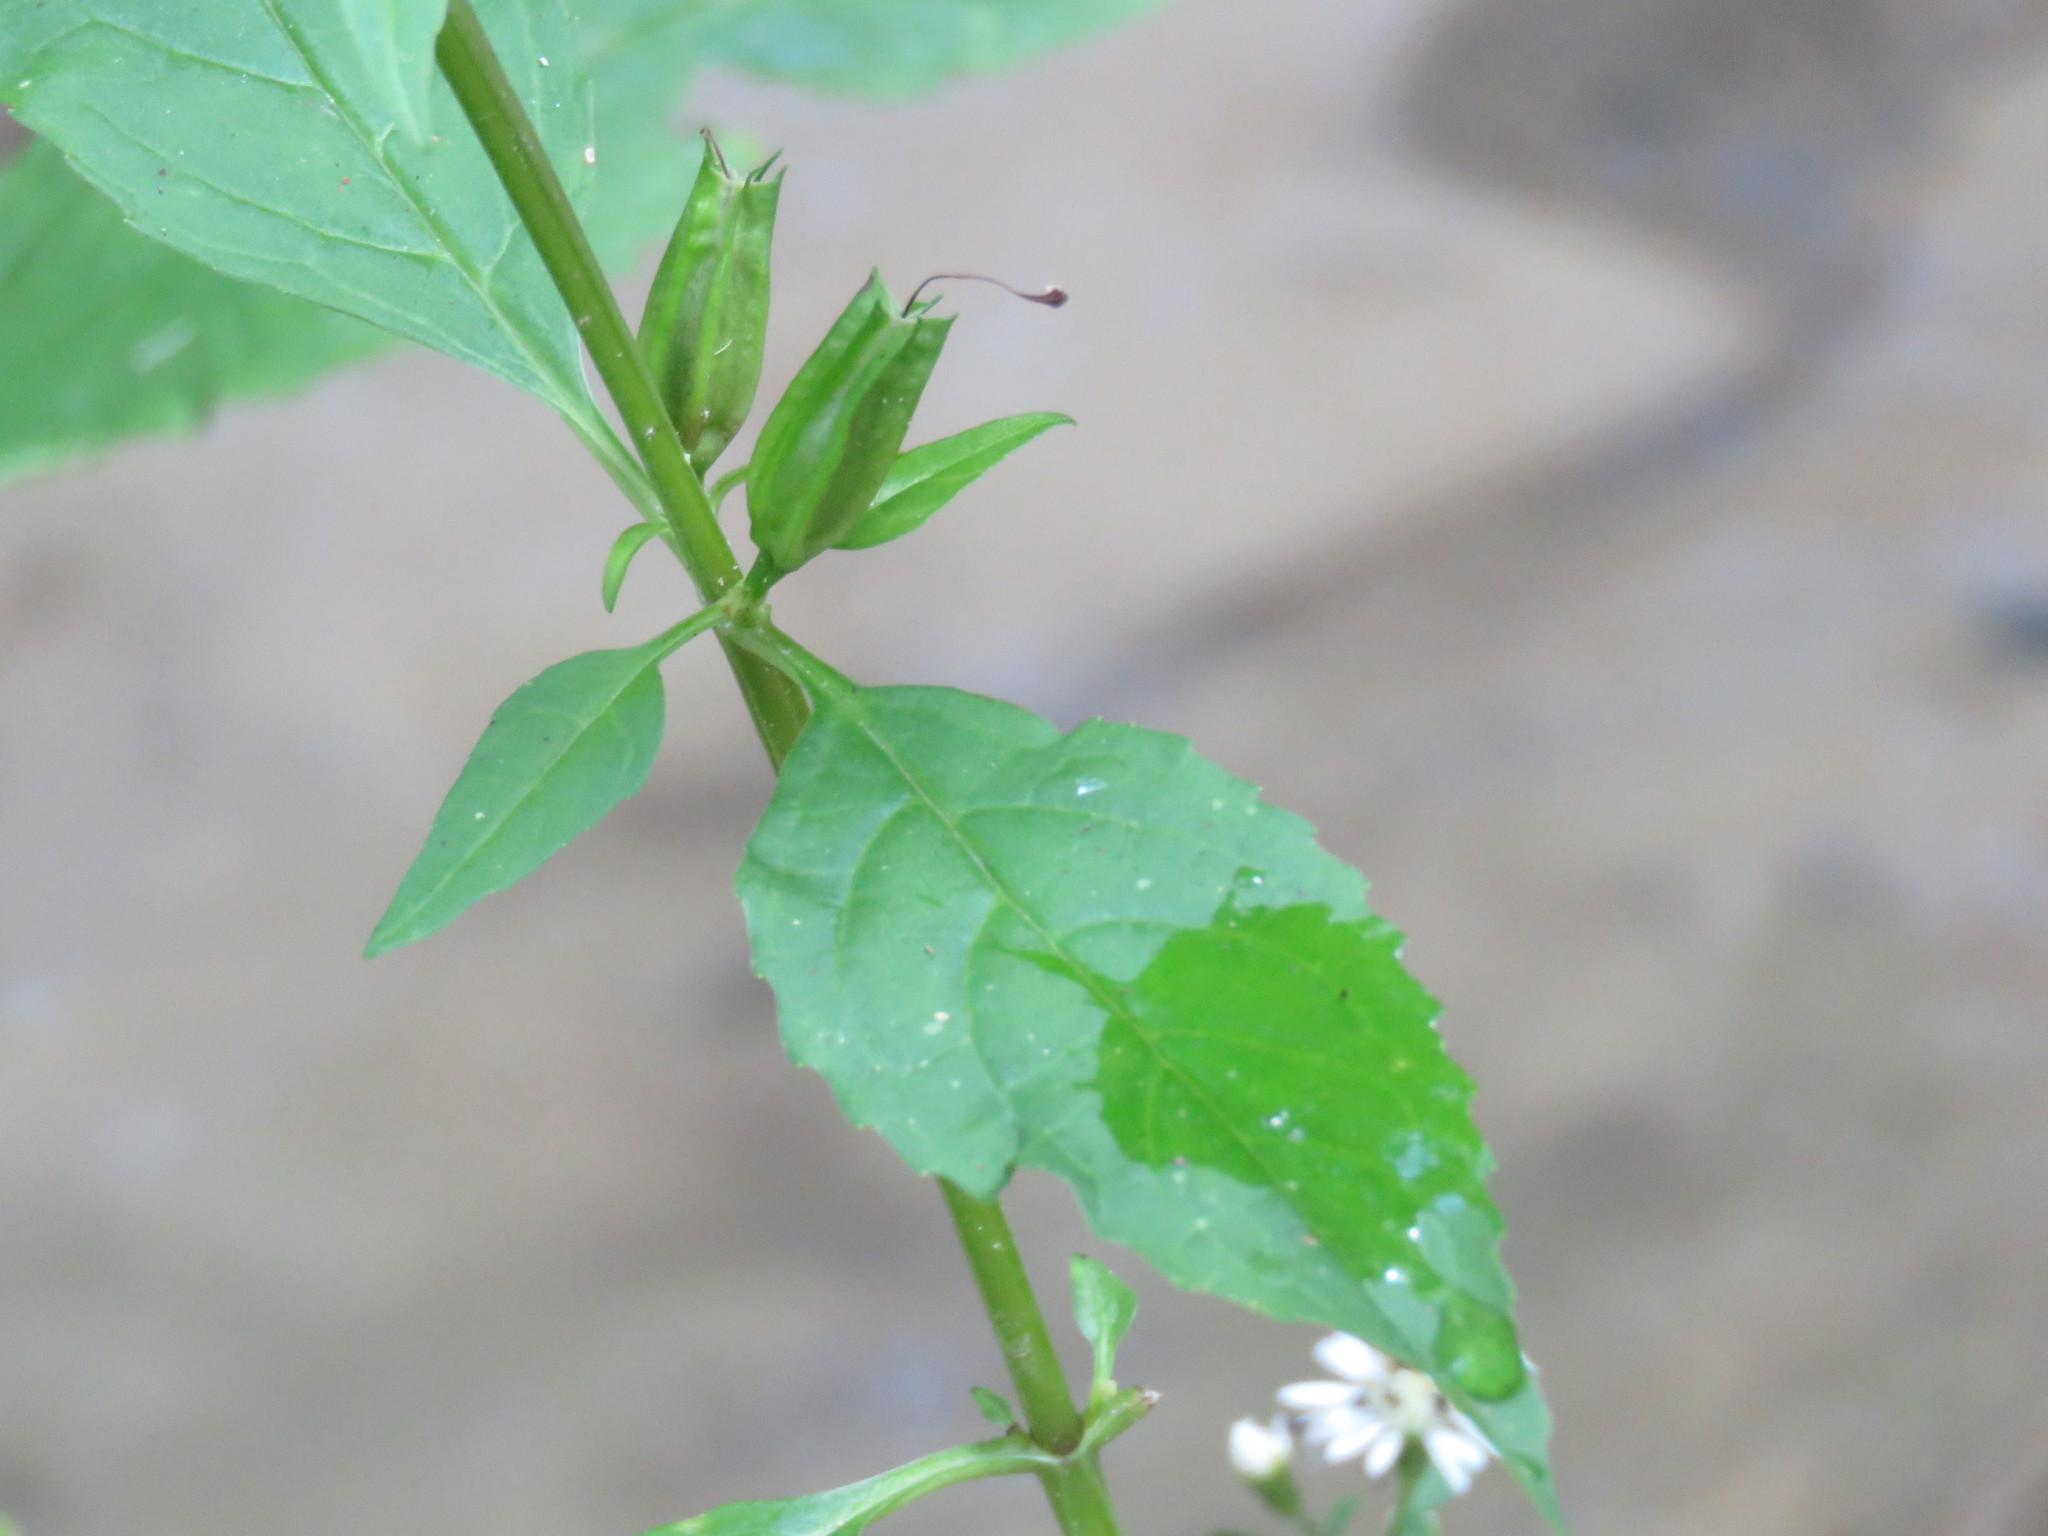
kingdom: Plantae
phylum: Tracheophyta
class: Magnoliopsida
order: Lamiales
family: Phrymaceae
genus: Mimulus
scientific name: Mimulus alatus
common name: Sharp-wing monkey-flower
